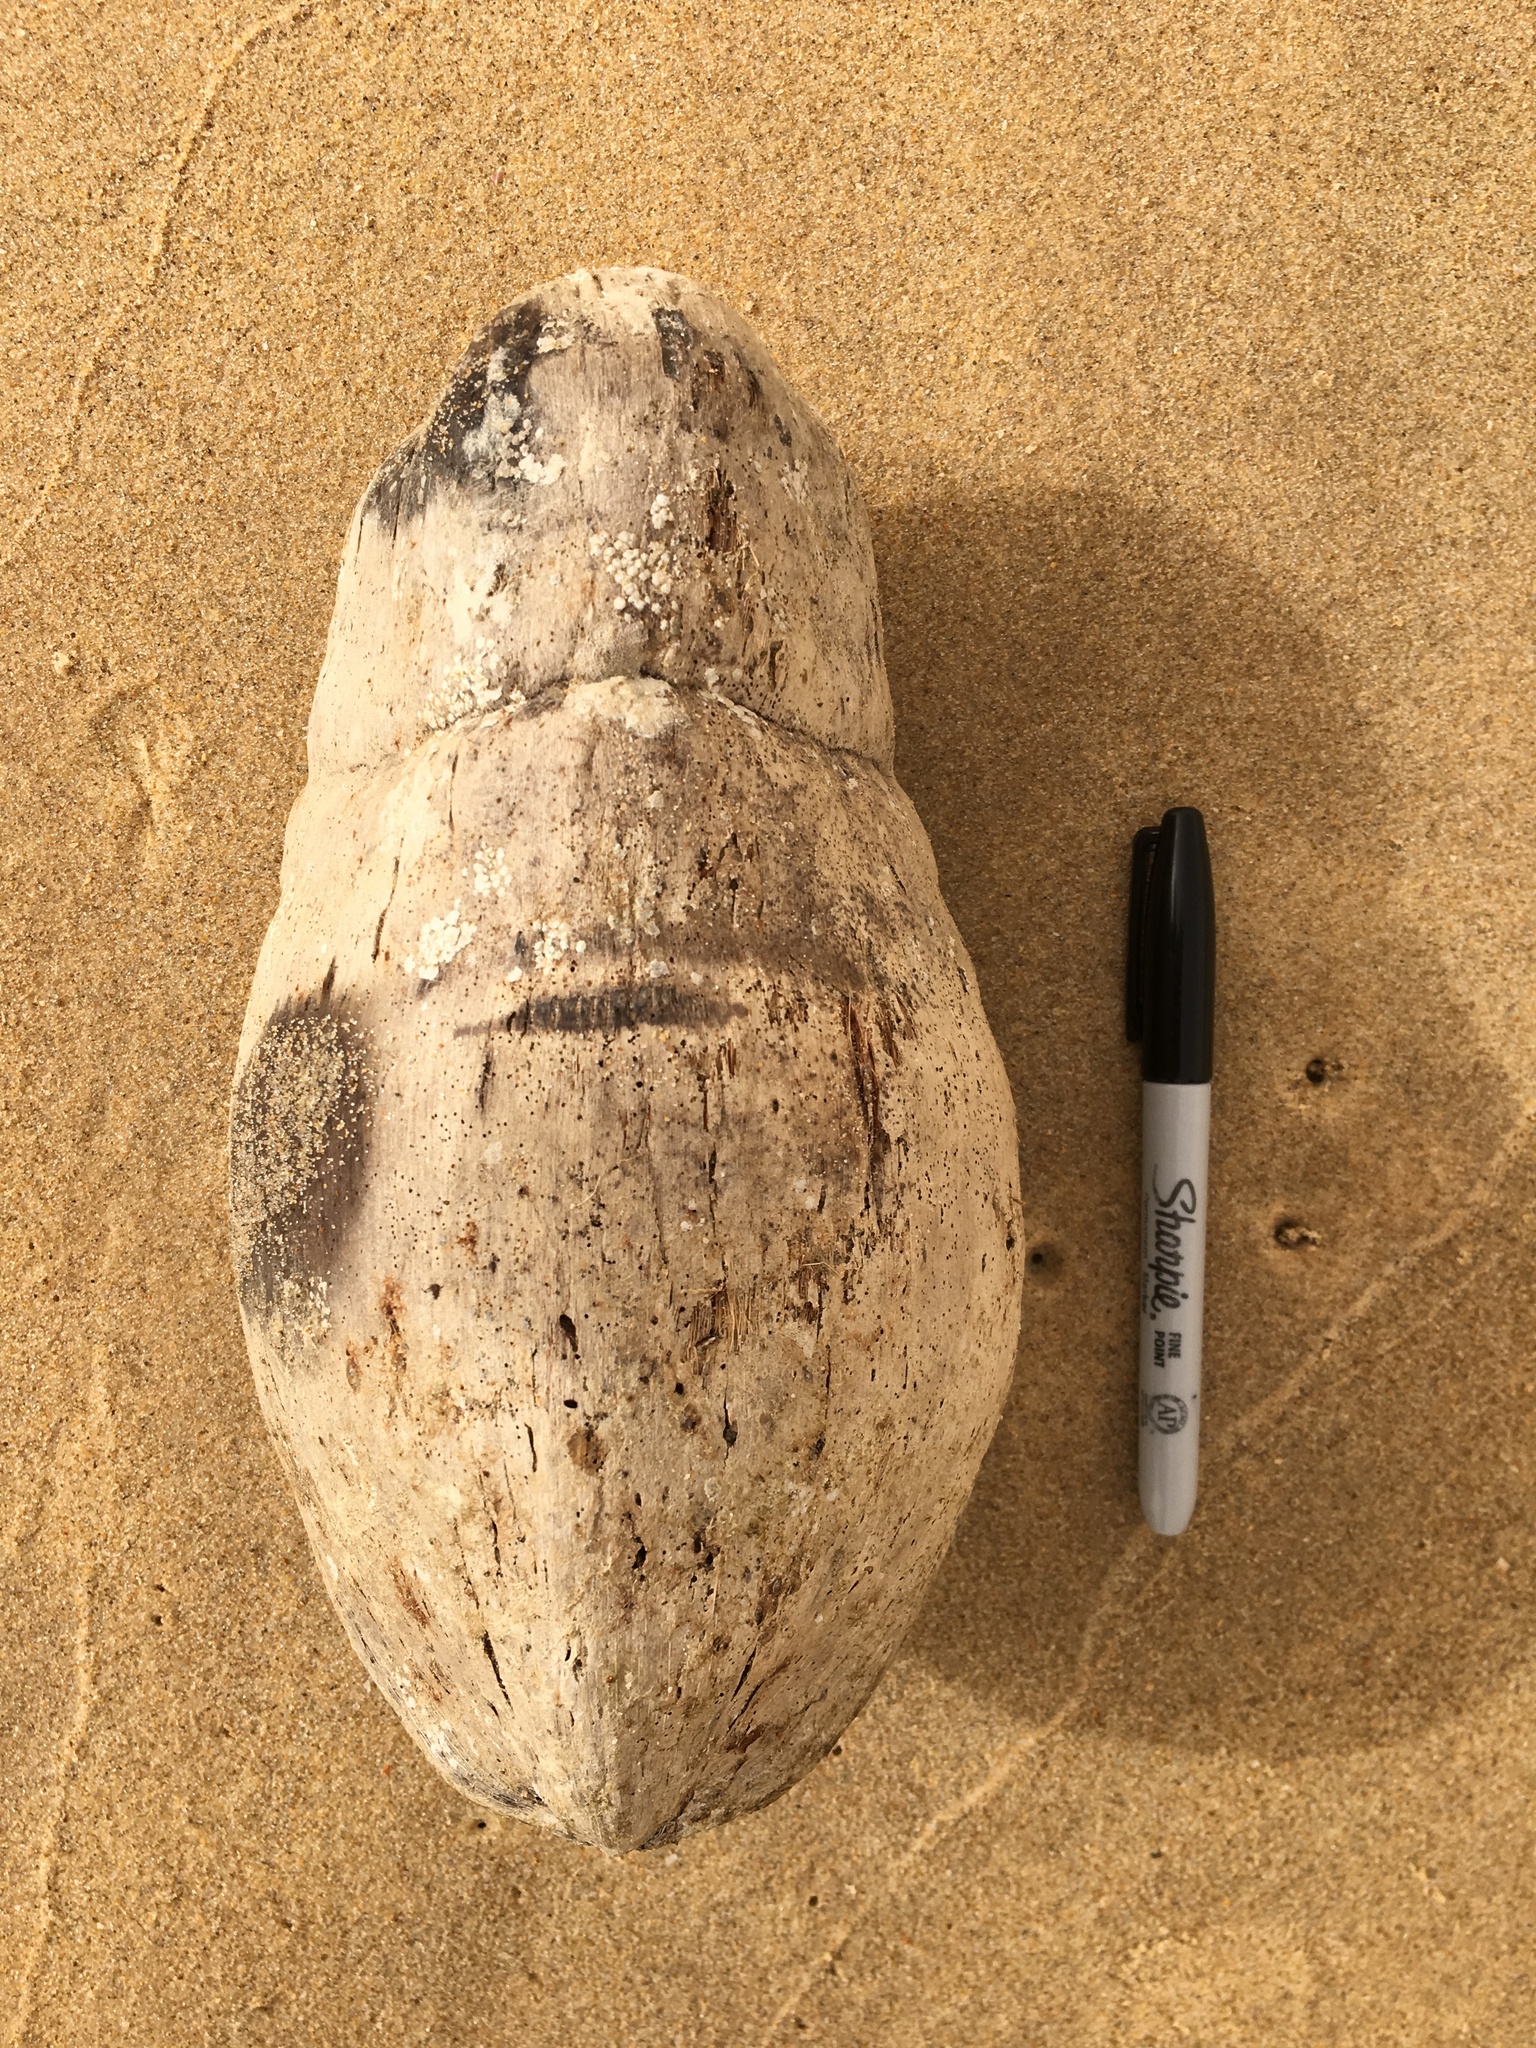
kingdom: Plantae
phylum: Tracheophyta
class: Liliopsida
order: Arecales
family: Arecaceae
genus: Cocos
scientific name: Cocos nucifera
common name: Coconut palm
